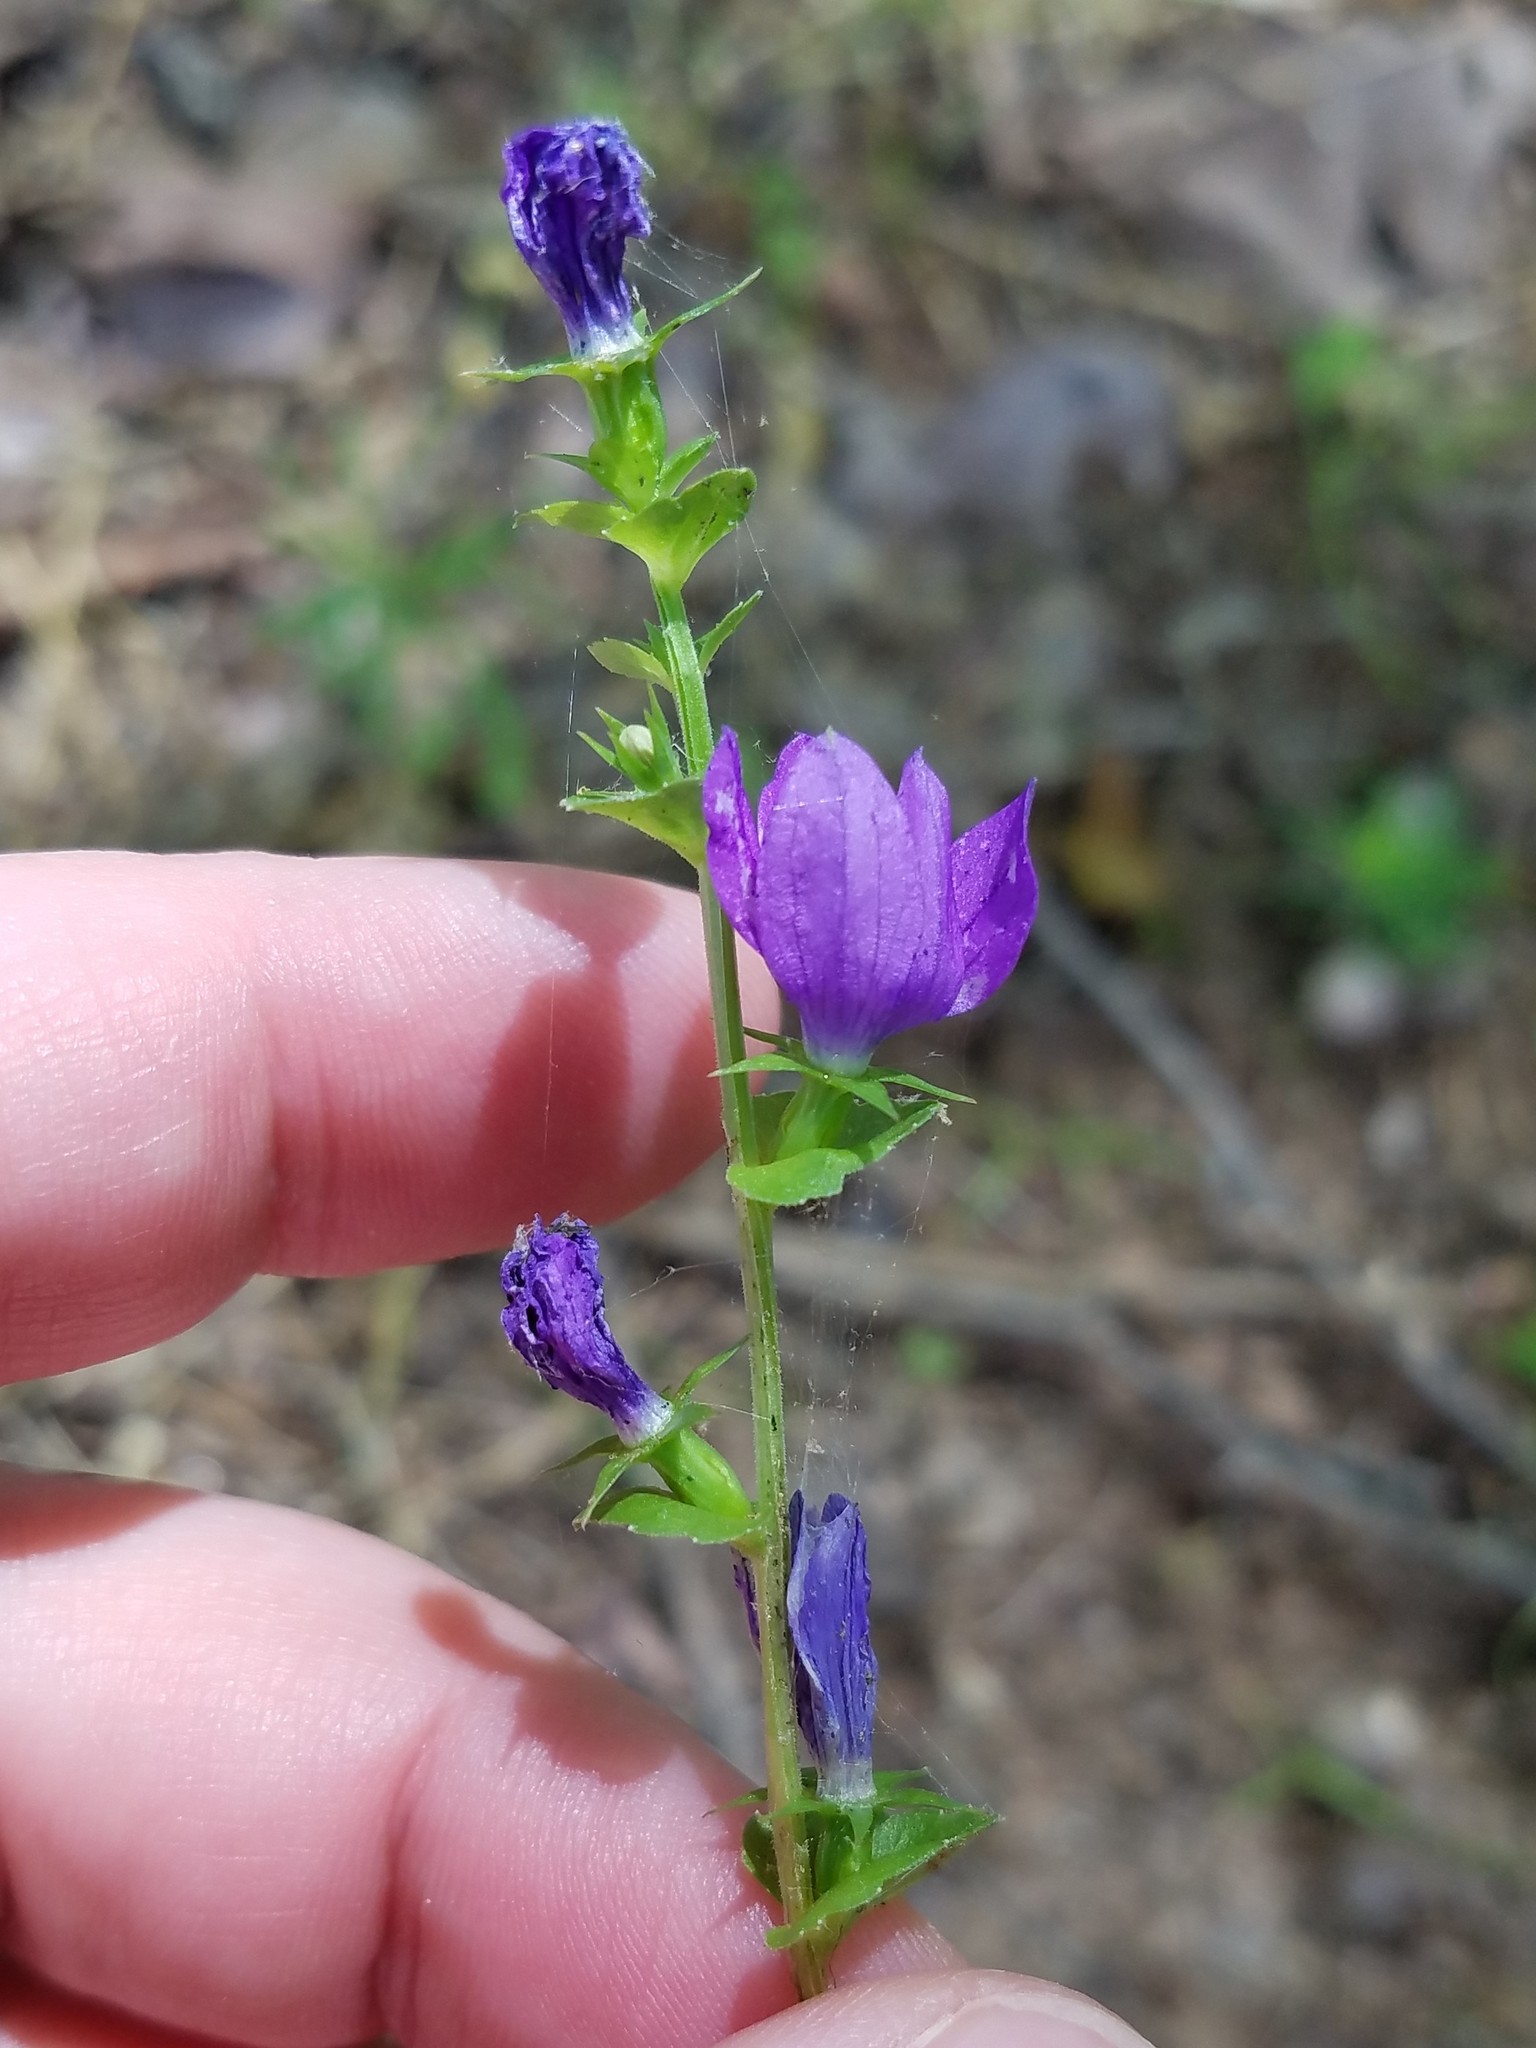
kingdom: Plantae
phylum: Tracheophyta
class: Magnoliopsida
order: Asterales
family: Campanulaceae
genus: Triodanis
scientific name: Triodanis perfoliata
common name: Clasping venus' looking-glass
